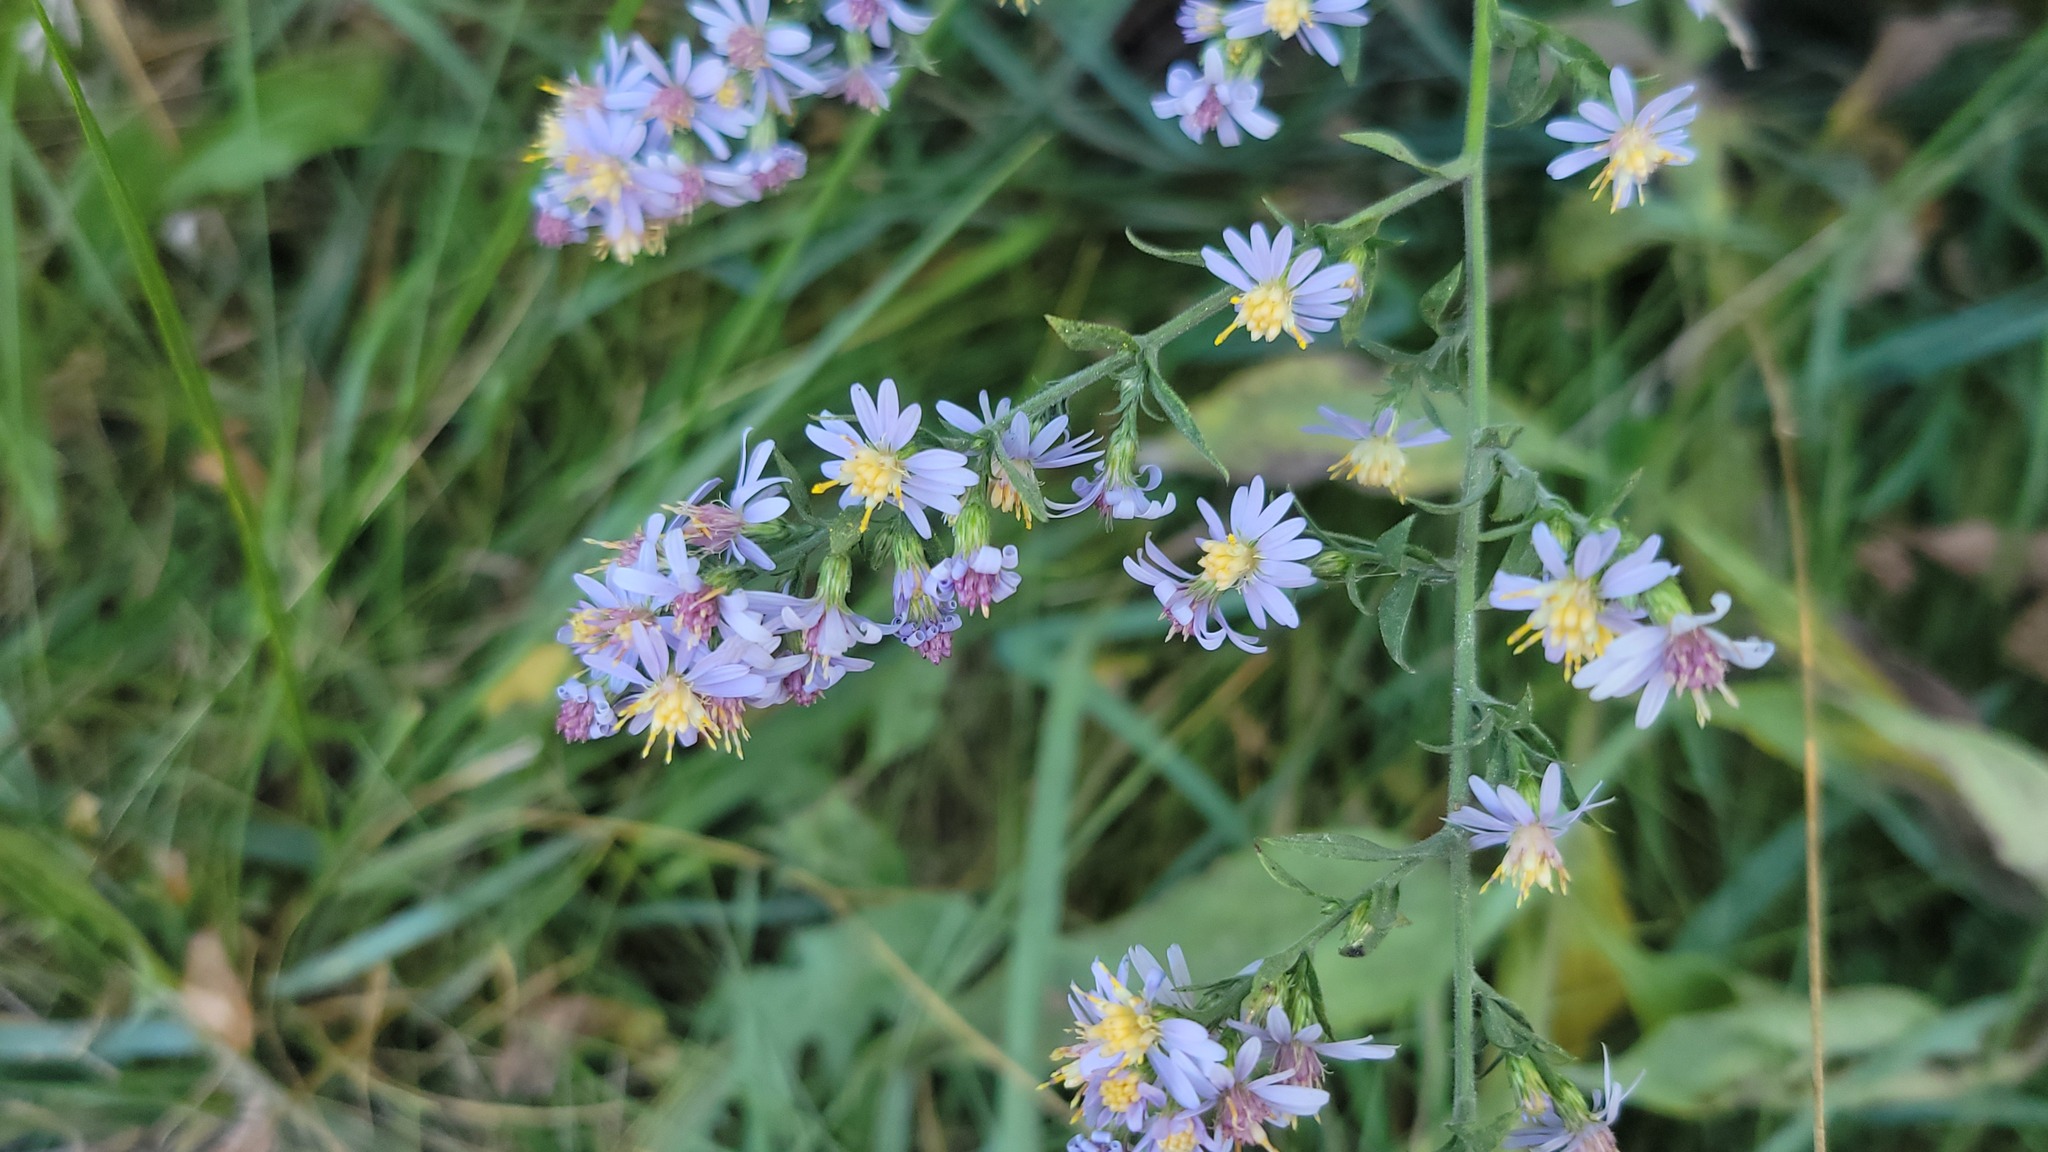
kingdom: Plantae
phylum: Tracheophyta
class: Magnoliopsida
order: Asterales
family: Asteraceae
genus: Symphyotrichum
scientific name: Symphyotrichum drummondii
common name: Drummond's aster
